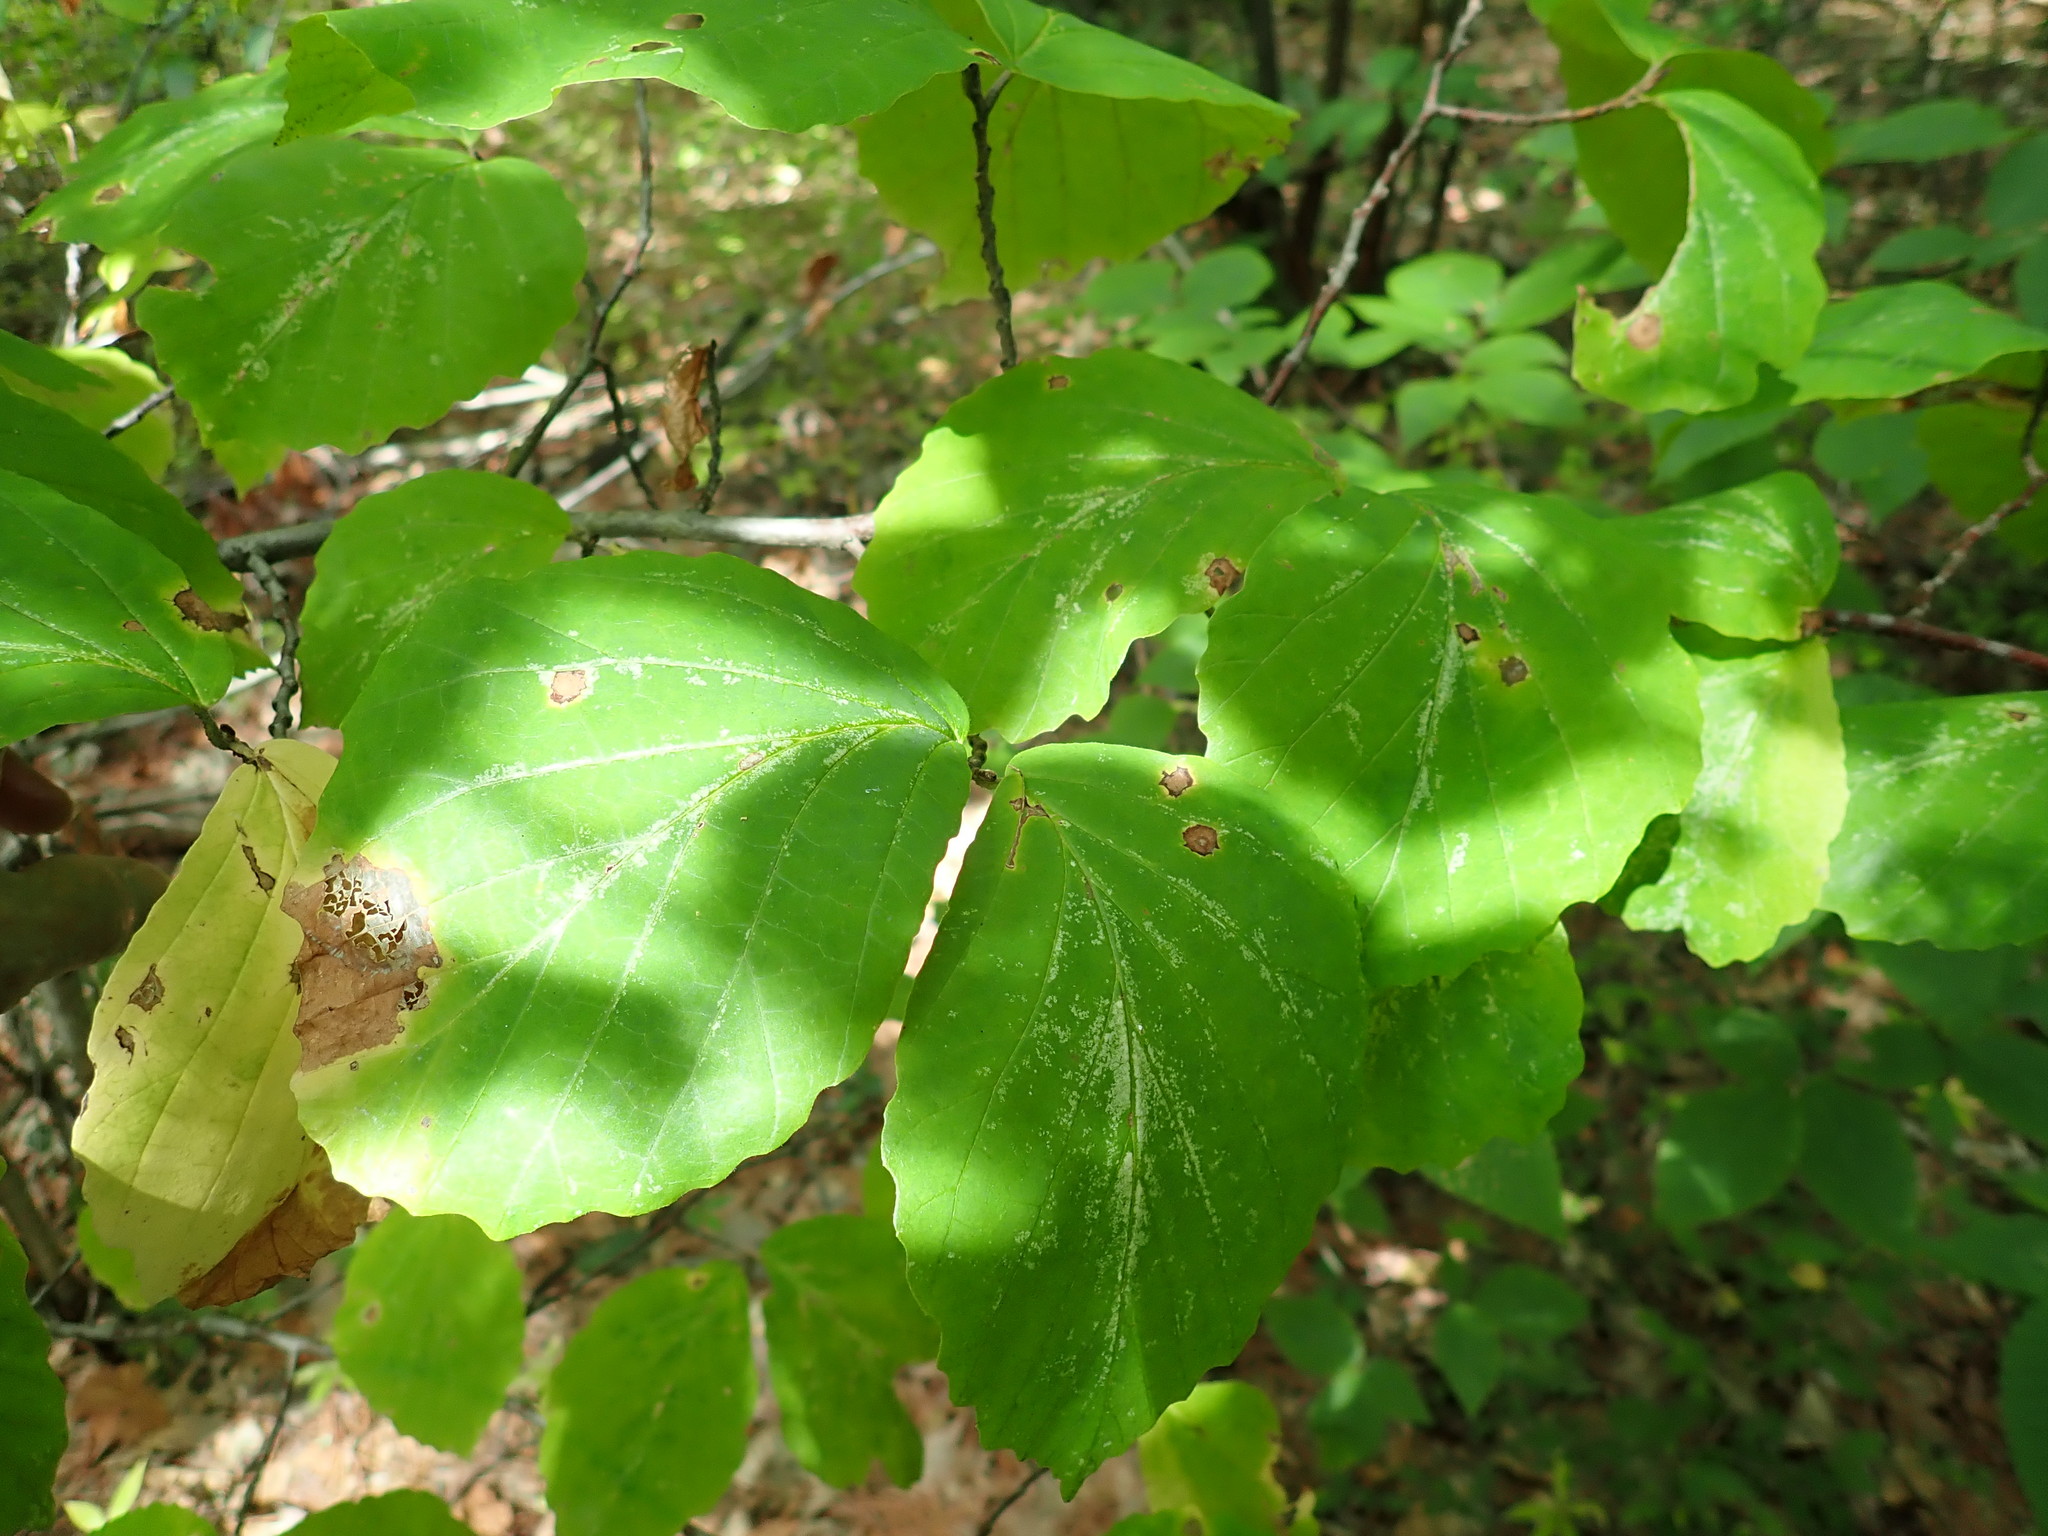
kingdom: Plantae
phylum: Tracheophyta
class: Magnoliopsida
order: Saxifragales
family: Hamamelidaceae
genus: Hamamelis
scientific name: Hamamelis virginiana
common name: Witch-hazel
